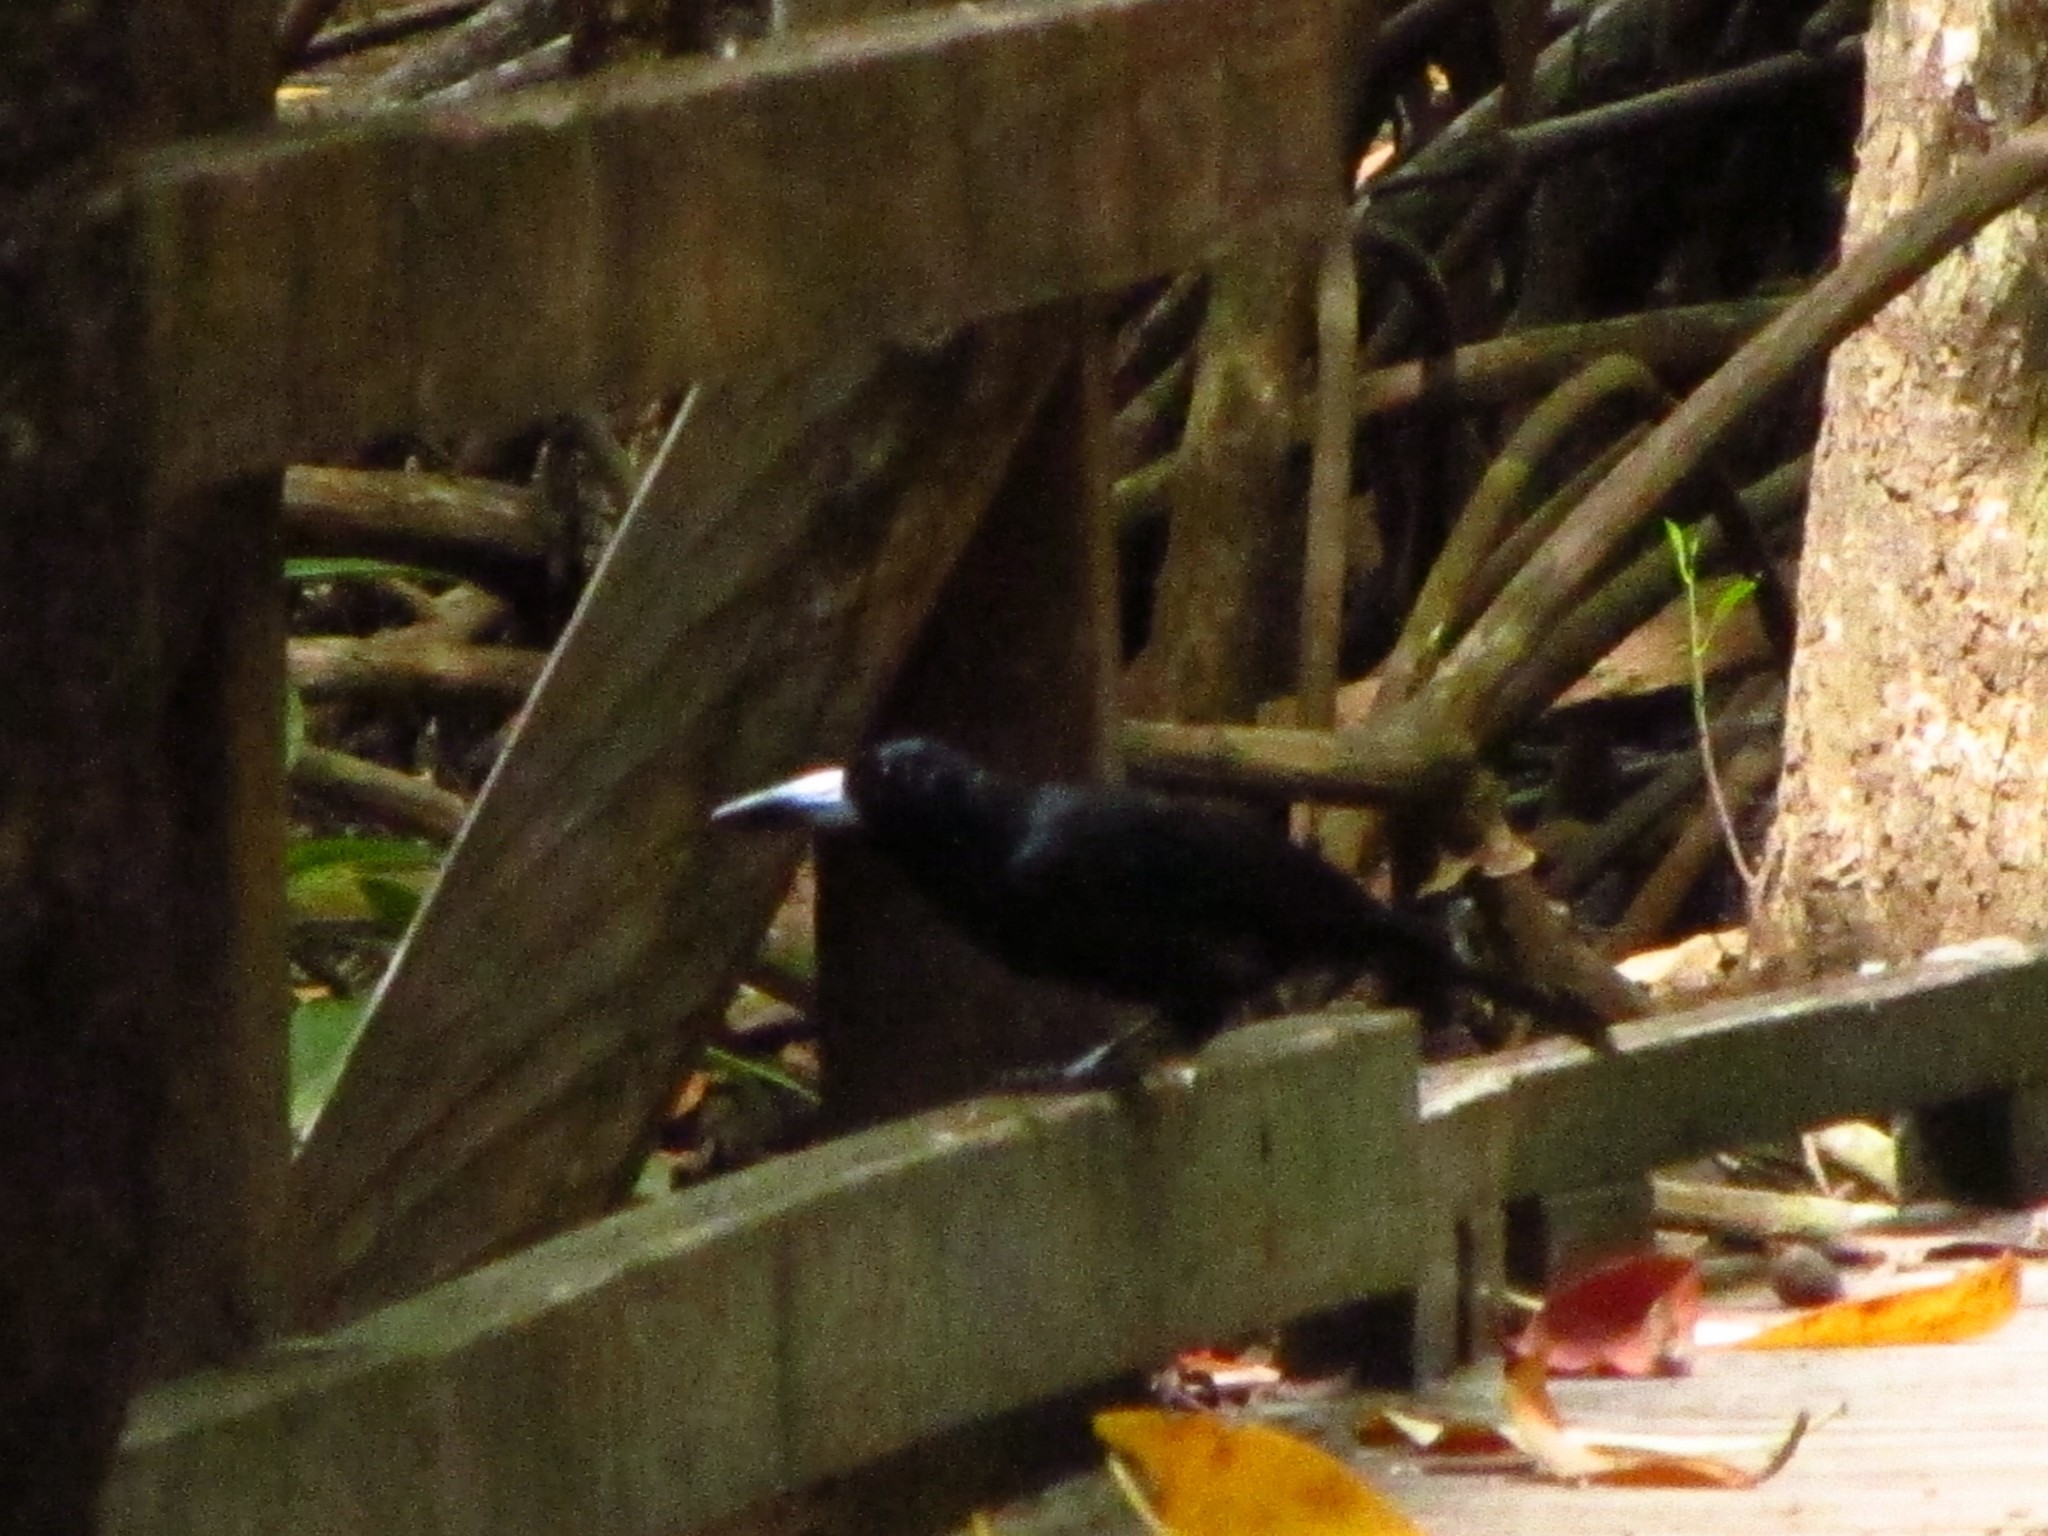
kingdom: Animalia
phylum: Chordata
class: Aves
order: Passeriformes
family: Artamidae
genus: Melloria
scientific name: Melloria quoyi
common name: Black butcherbird
